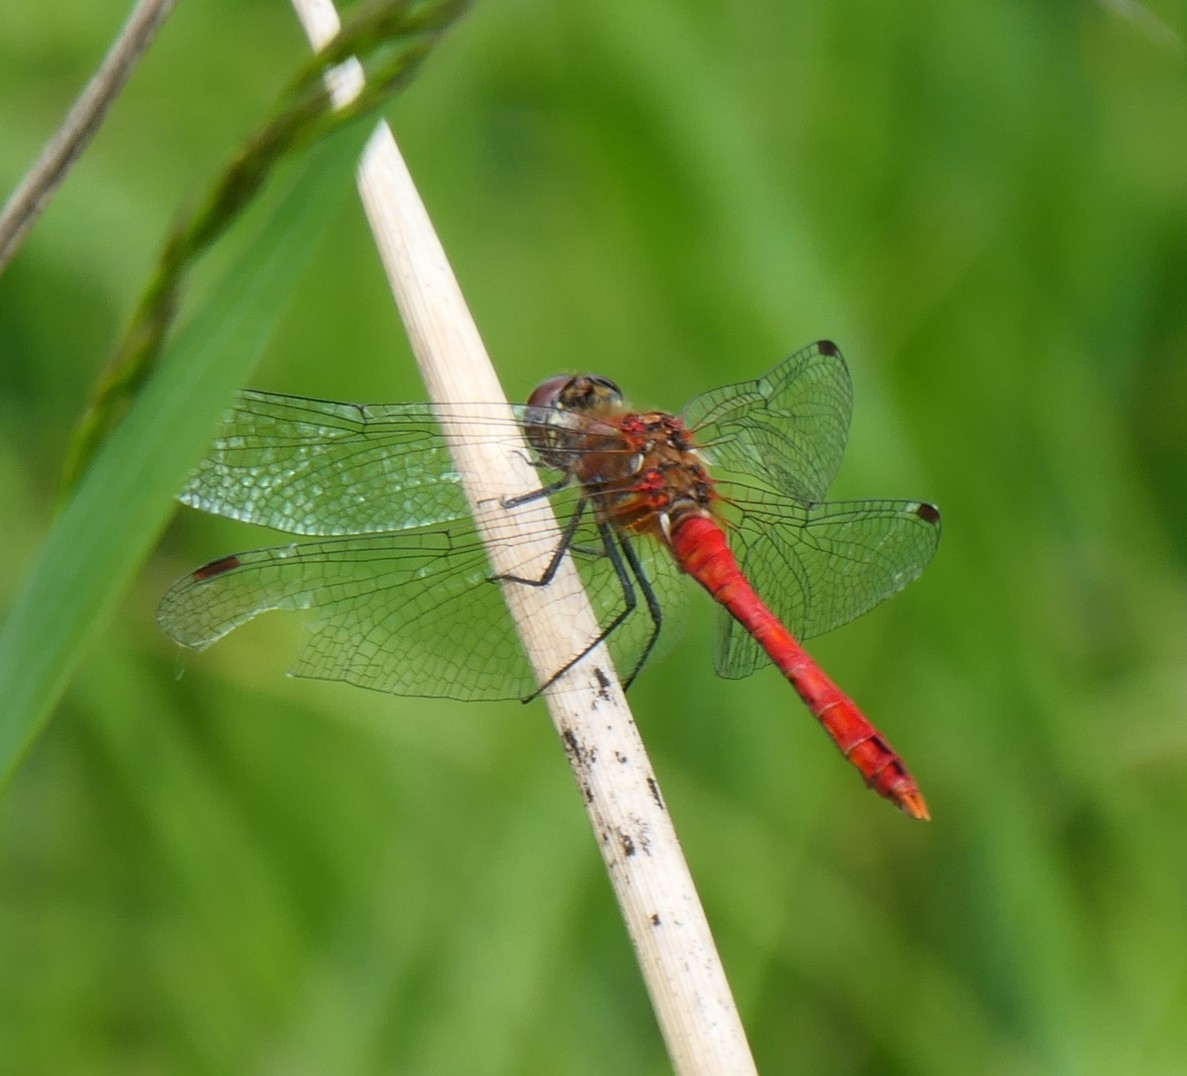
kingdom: Animalia
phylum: Arthropoda
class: Insecta
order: Odonata
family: Libellulidae
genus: Sympetrum
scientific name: Sympetrum sanguineum
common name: Ruddy darter
